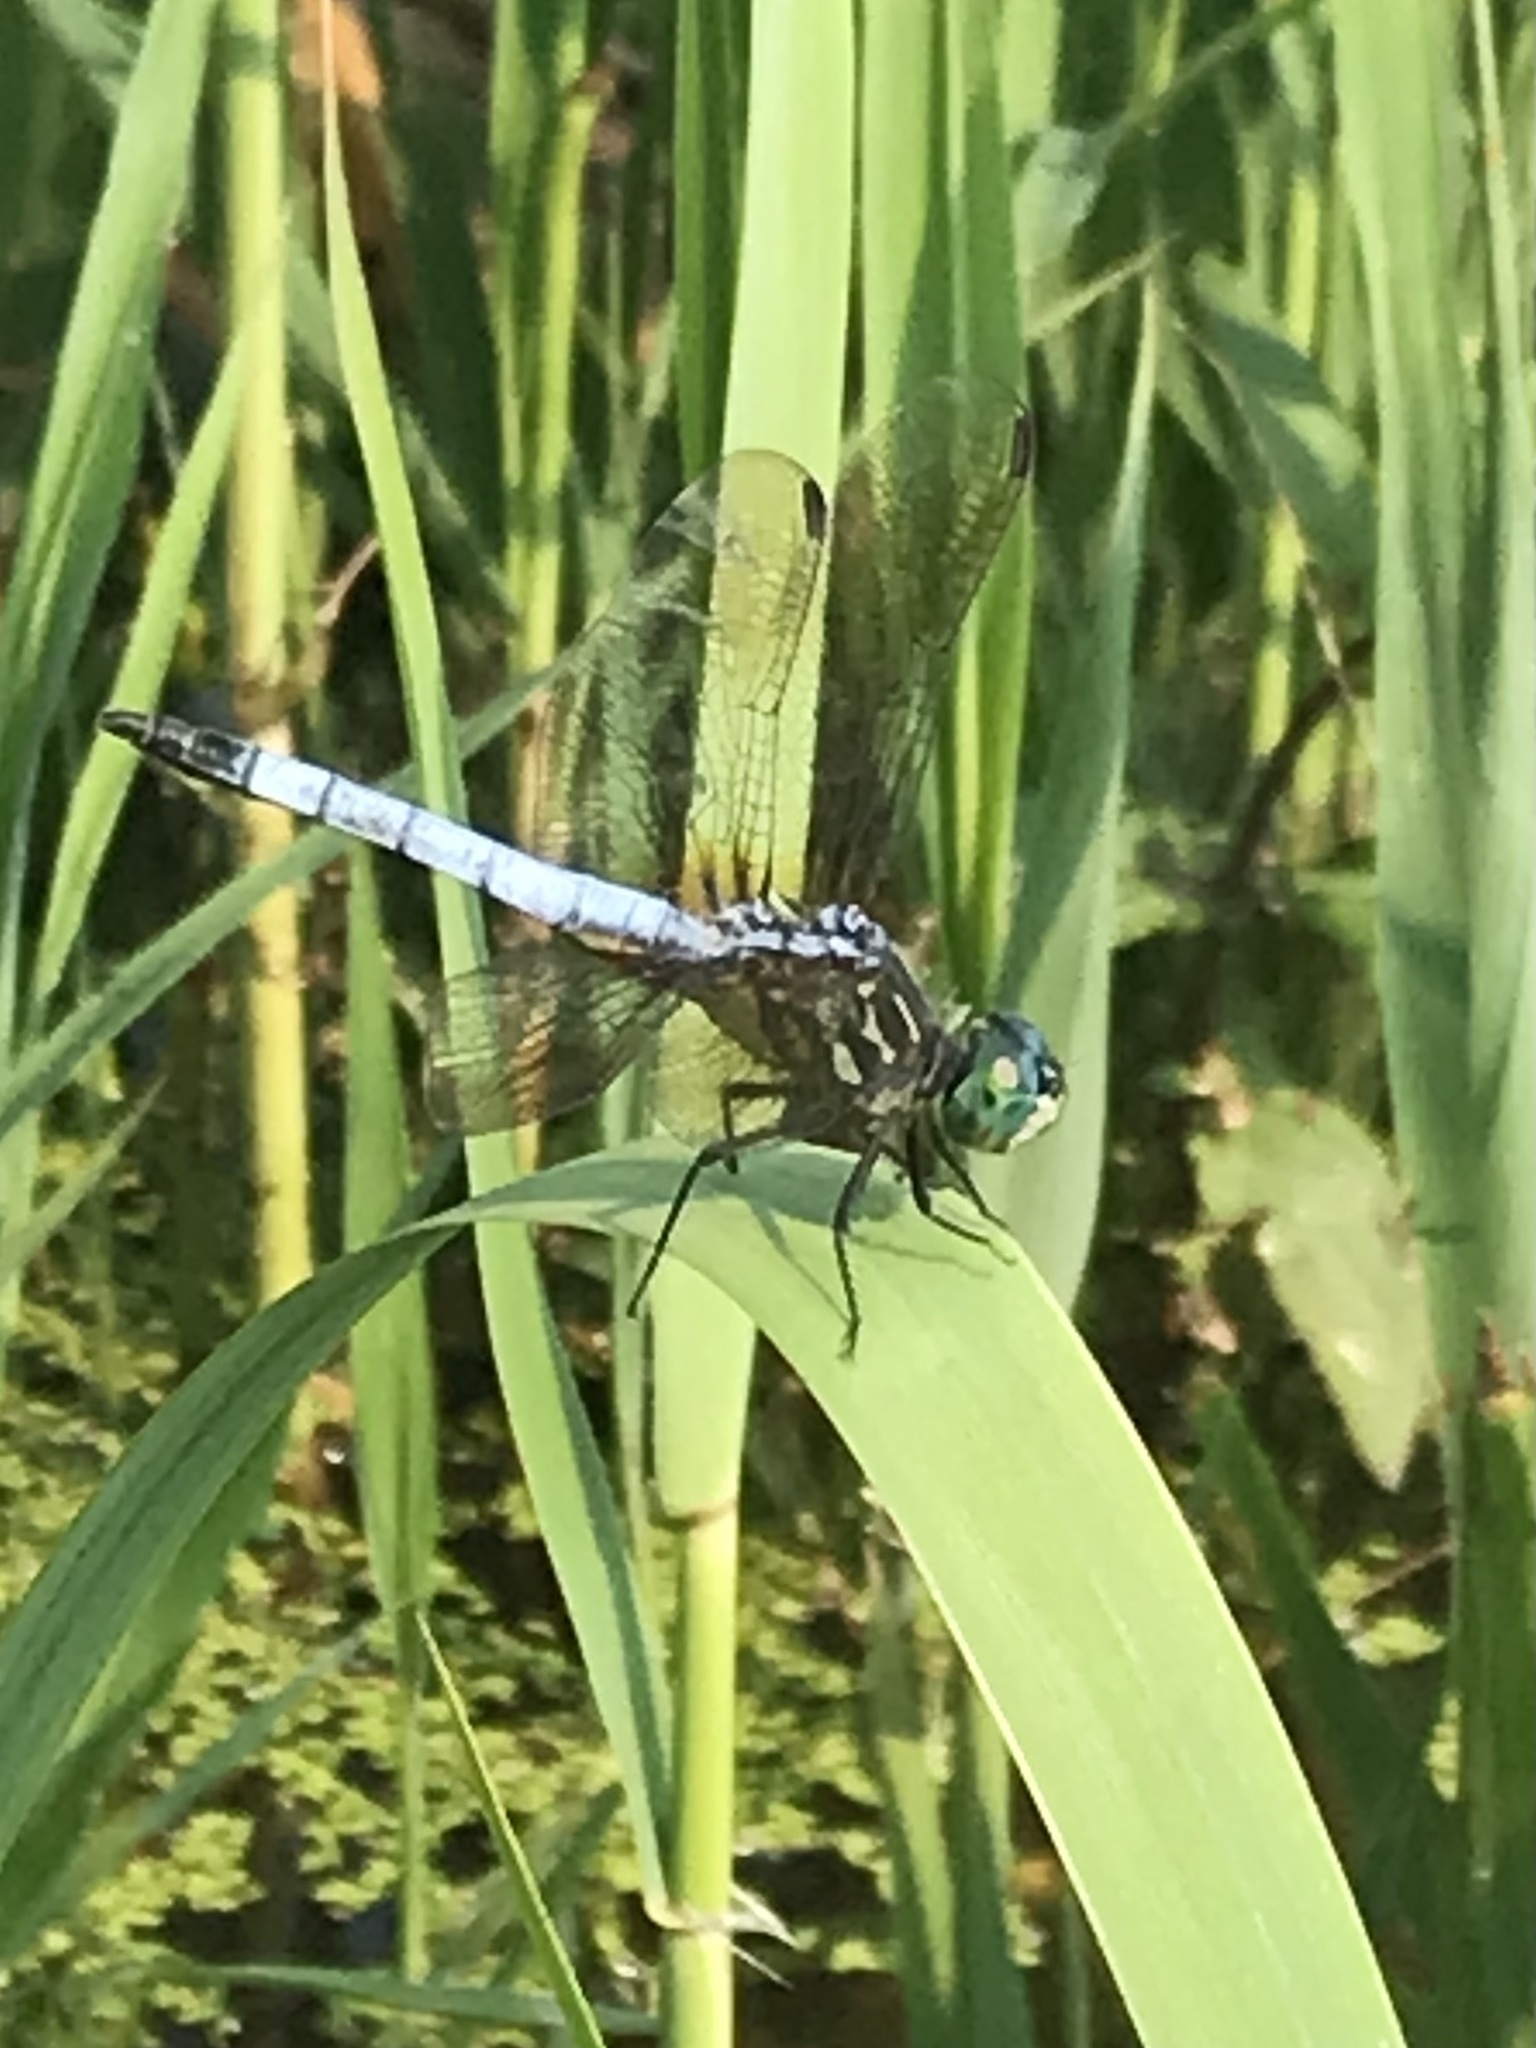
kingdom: Animalia
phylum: Arthropoda
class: Insecta
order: Odonata
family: Libellulidae
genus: Pachydiplax
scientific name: Pachydiplax longipennis
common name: Blue dasher
